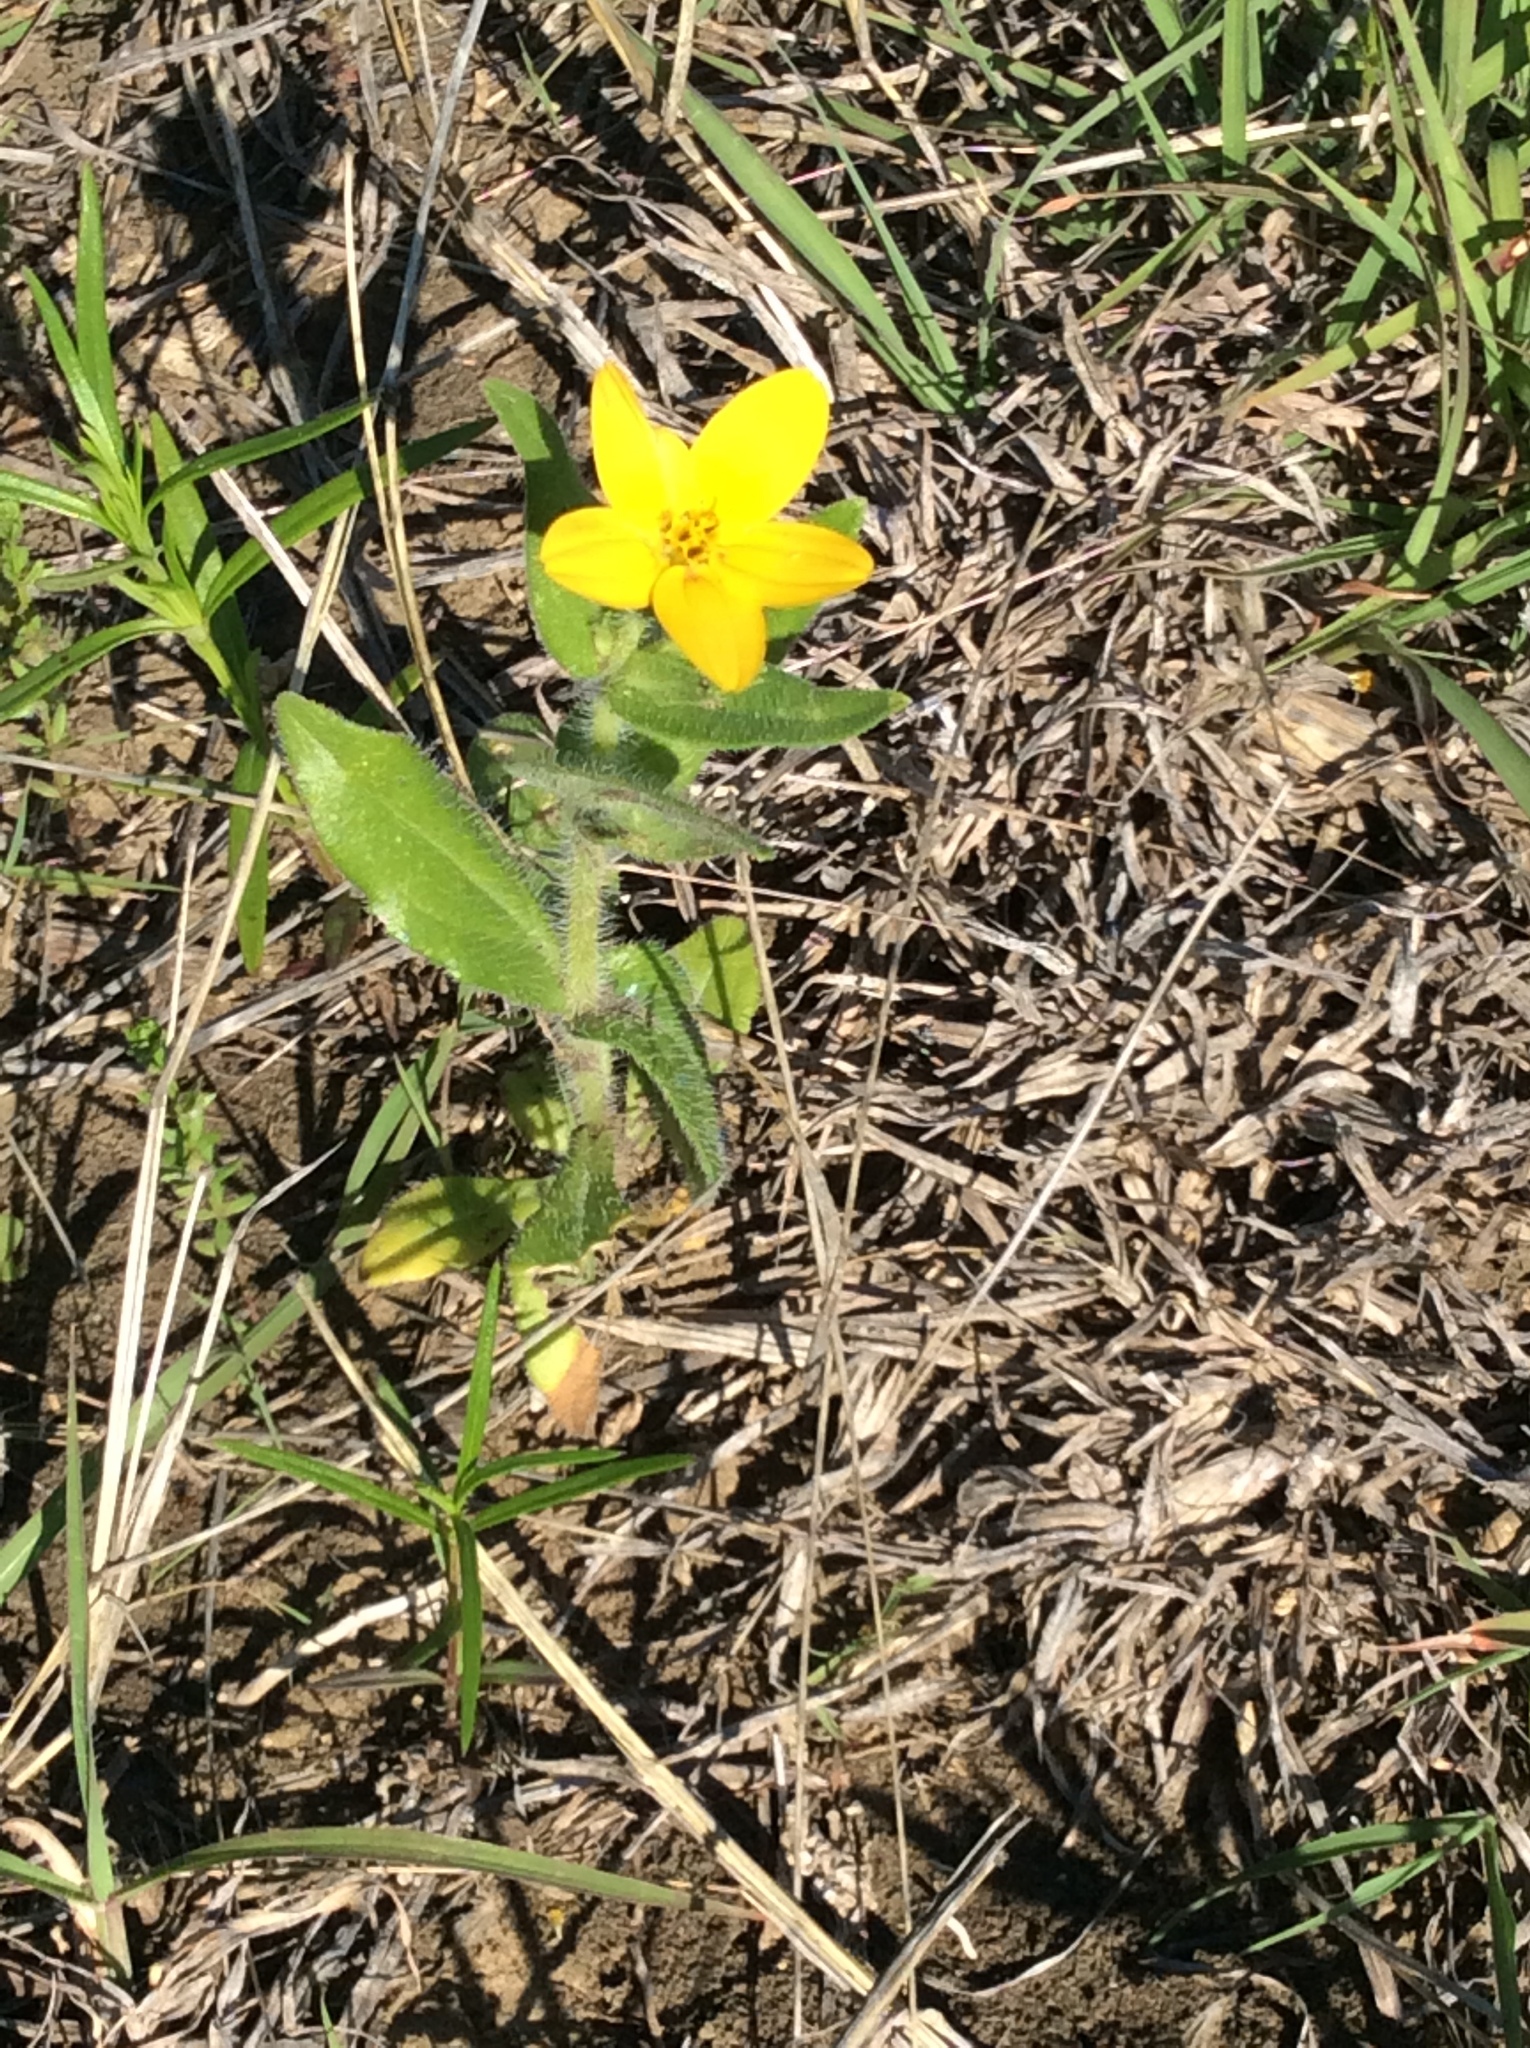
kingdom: Plantae
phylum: Tracheophyta
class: Magnoliopsida
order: Asterales
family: Asteraceae
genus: Lindheimera
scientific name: Lindheimera texana
